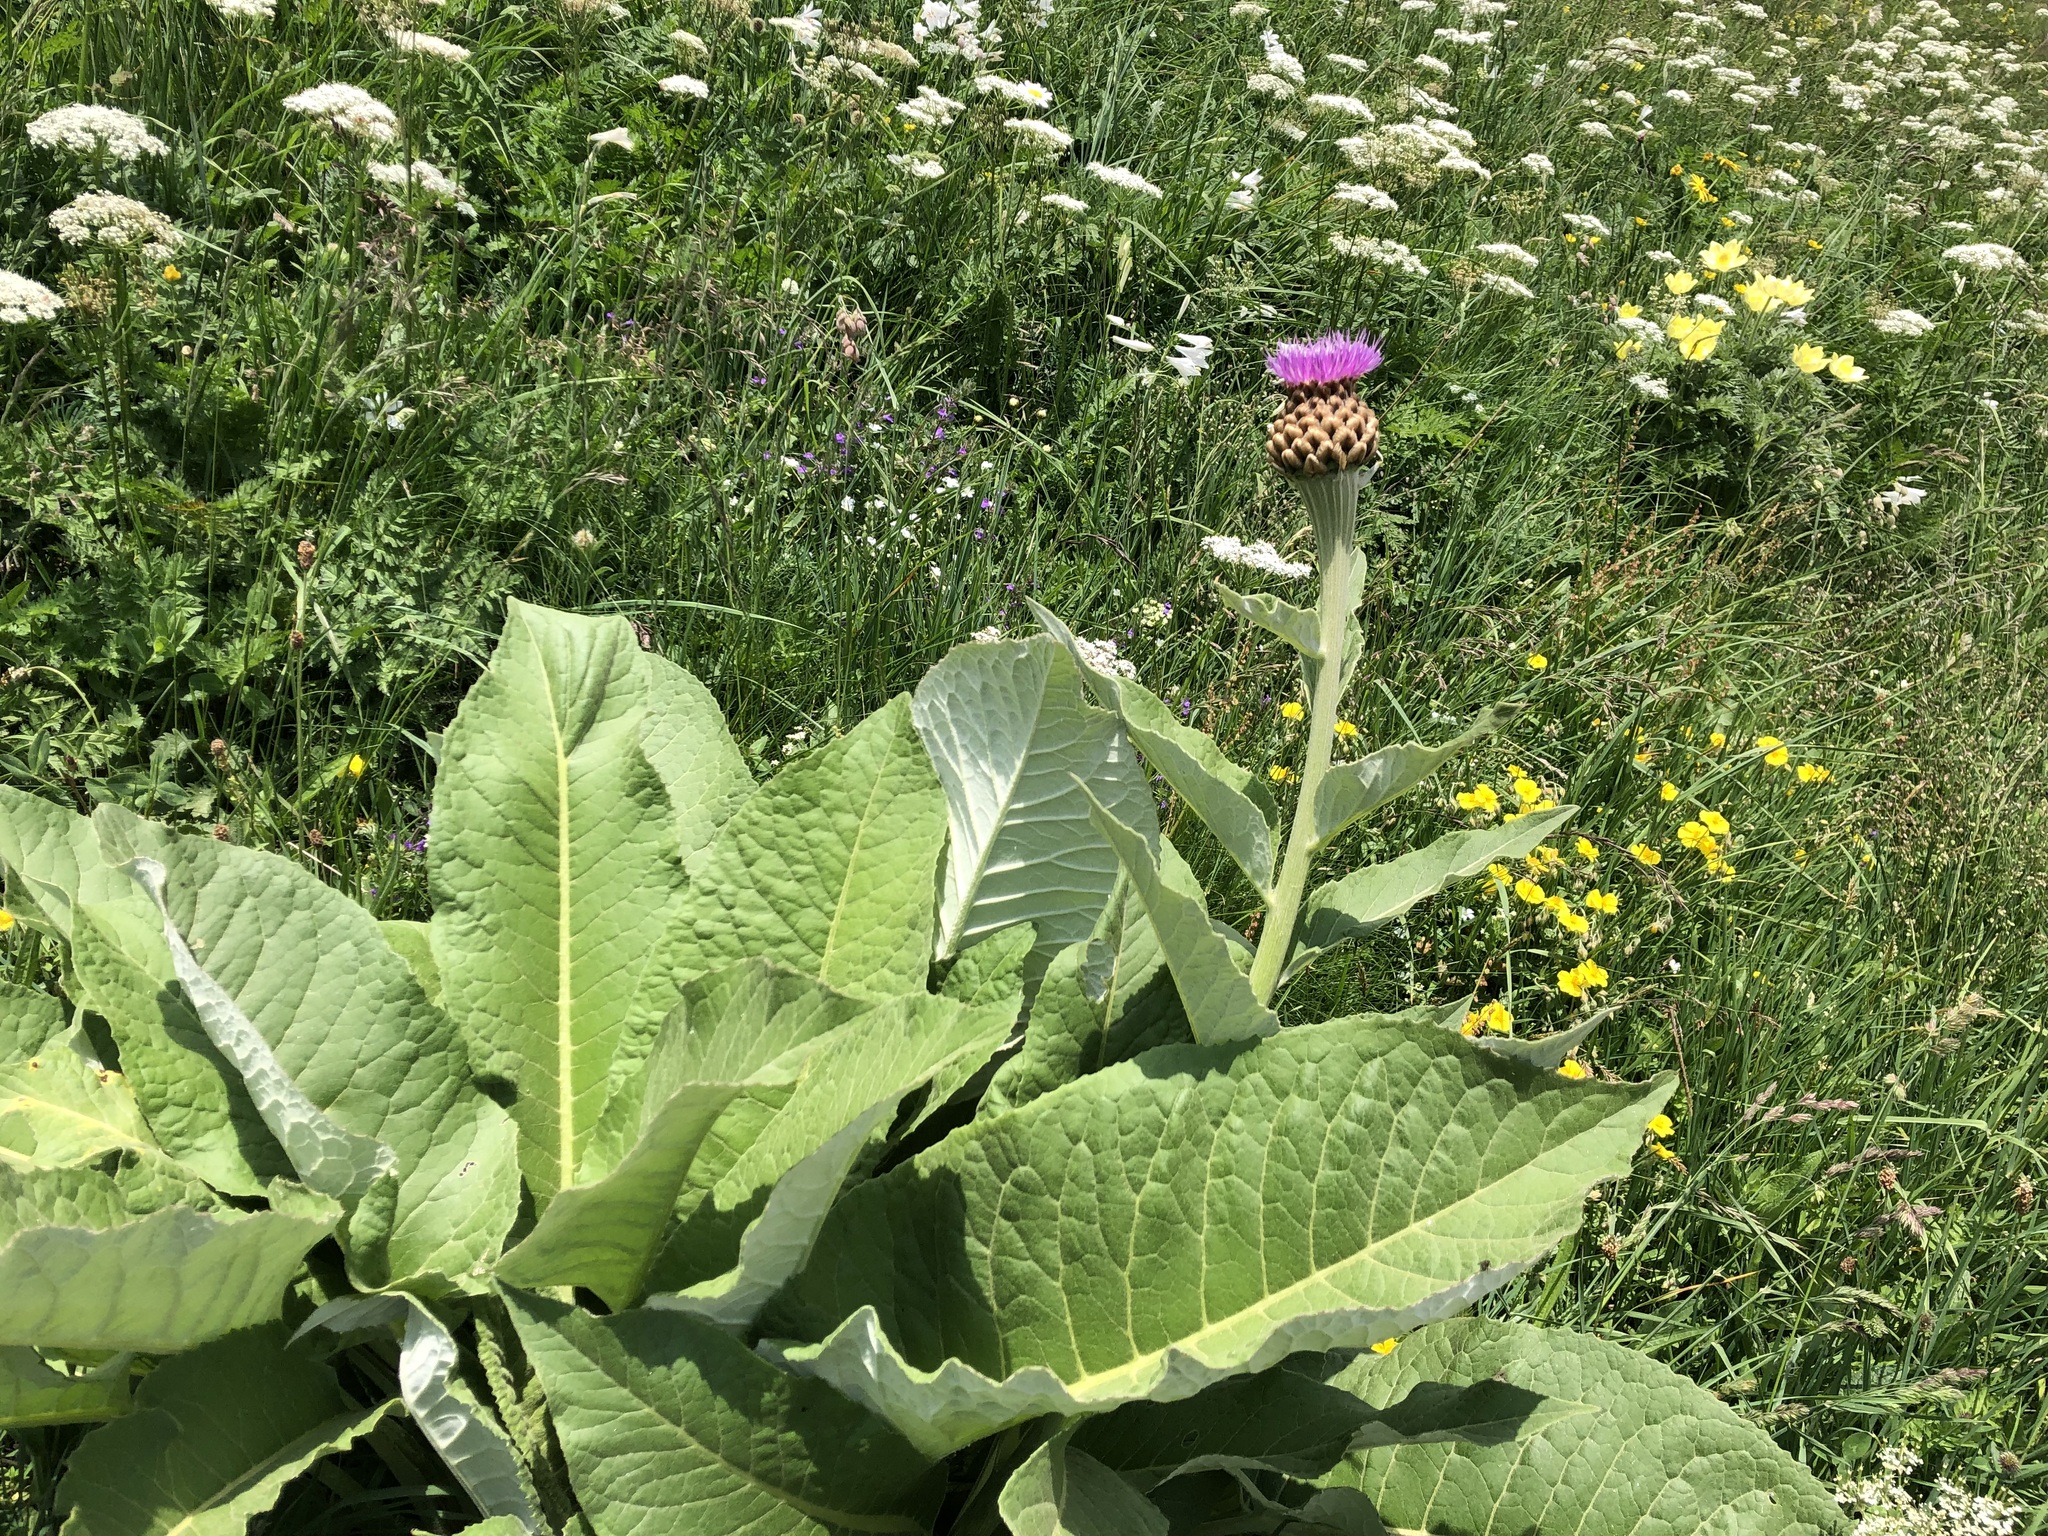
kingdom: Plantae
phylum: Tracheophyta
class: Magnoliopsida
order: Asterales
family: Asteraceae
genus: Leuzea
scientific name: Leuzea rhapontica
